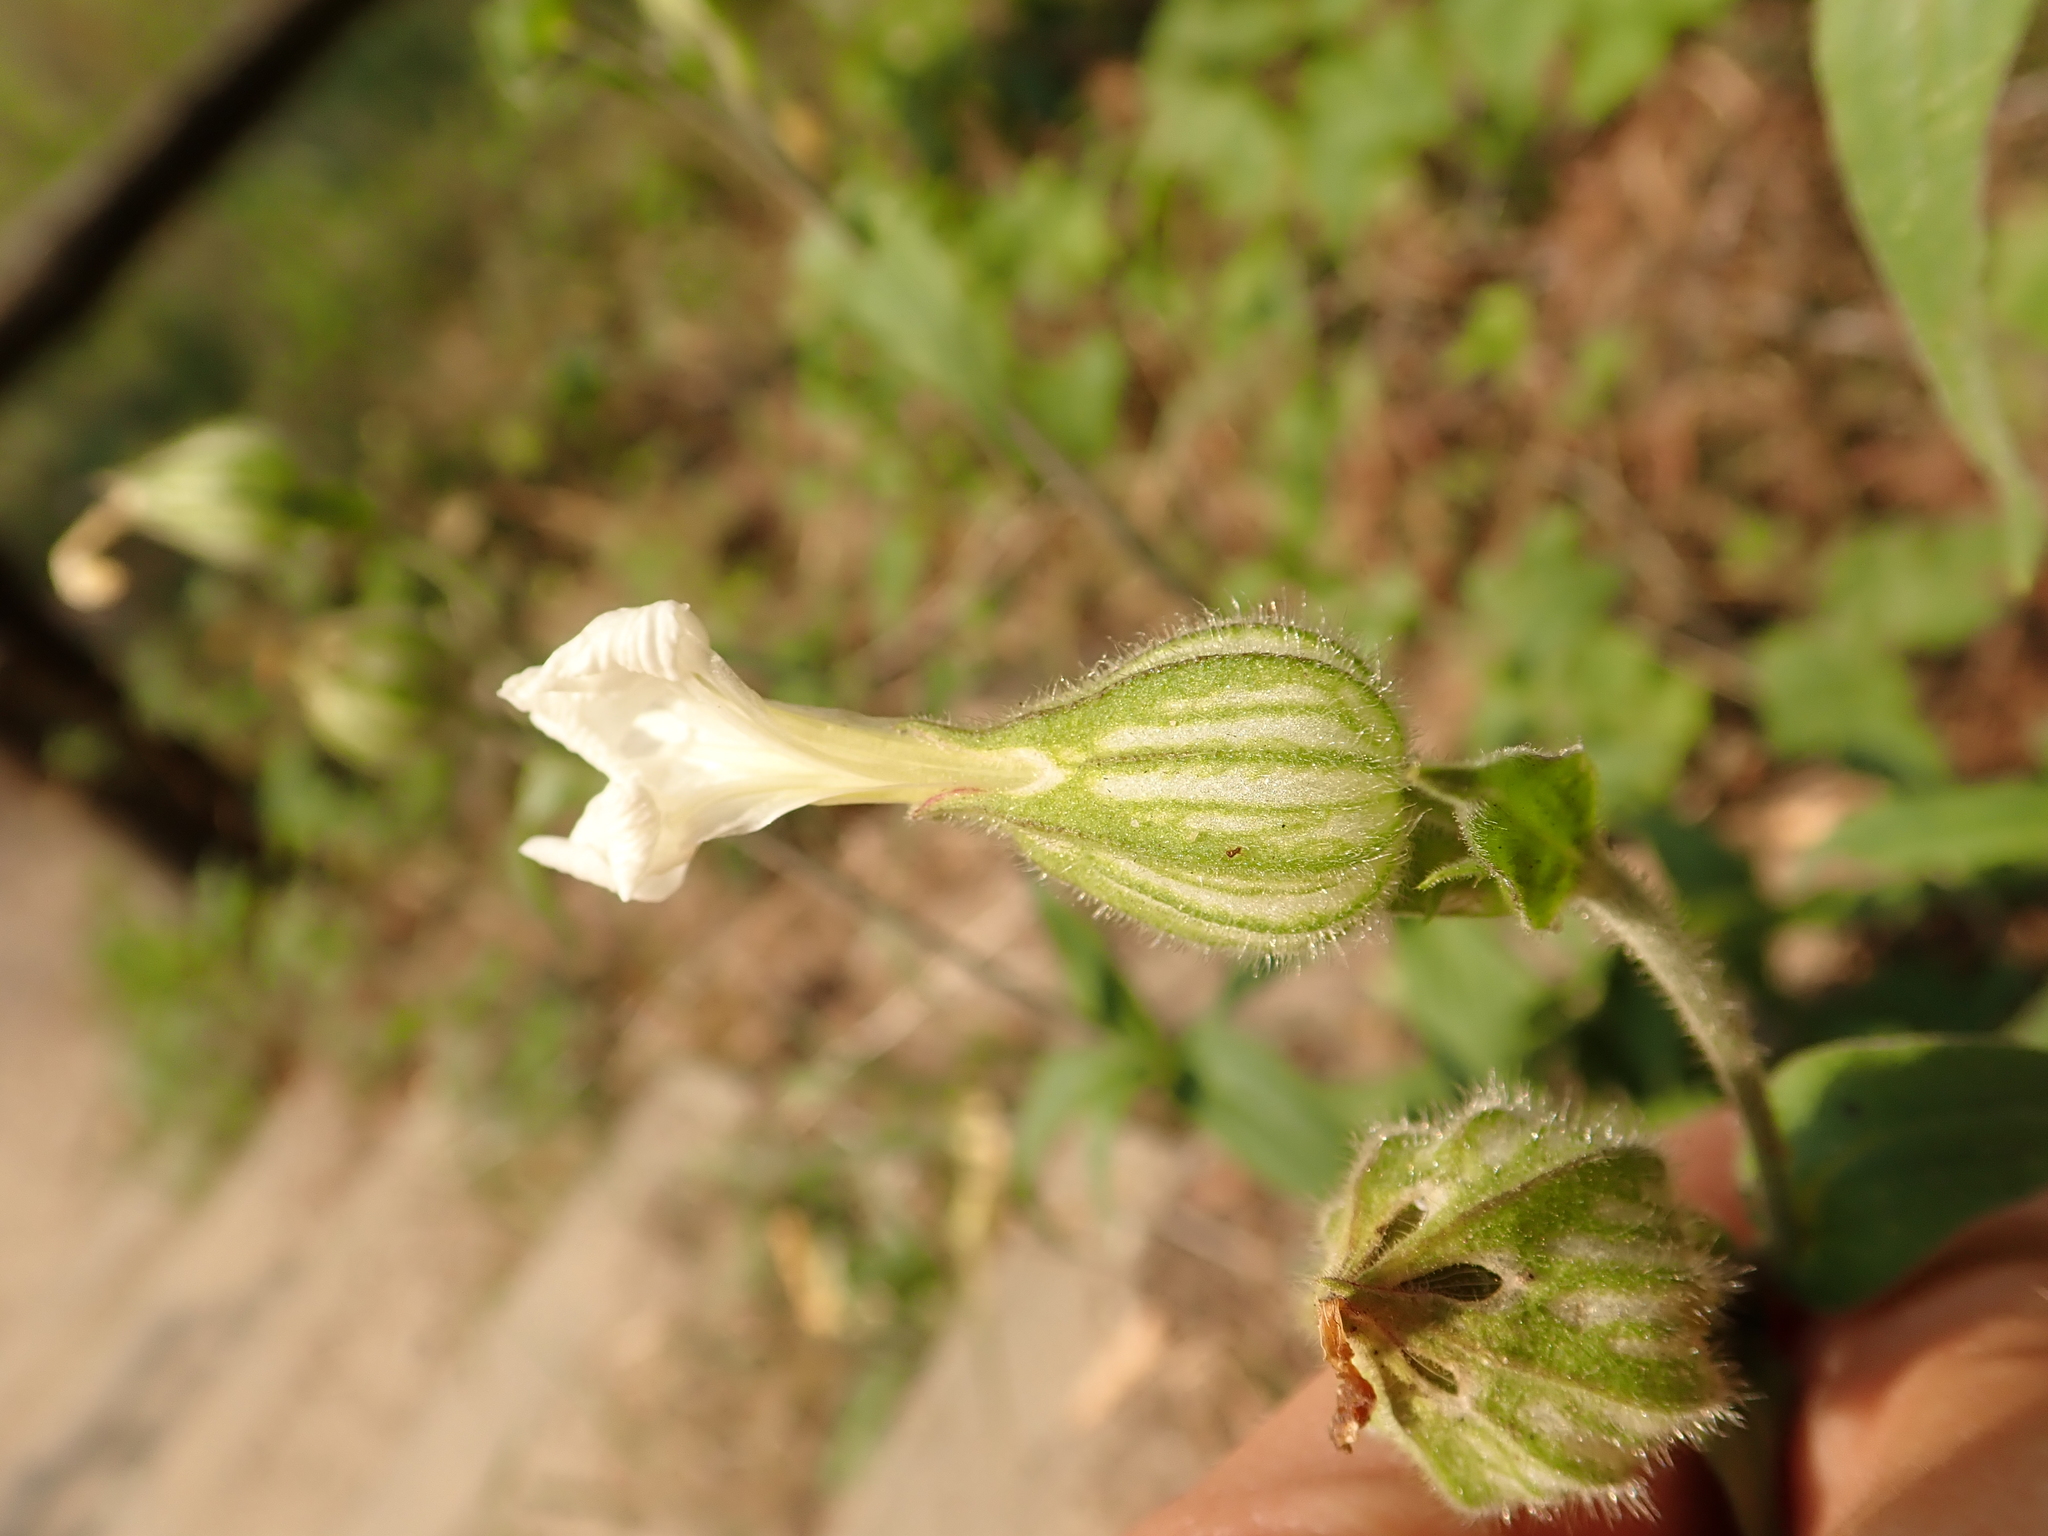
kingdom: Plantae
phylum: Tracheophyta
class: Magnoliopsida
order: Caryophyllales
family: Caryophyllaceae
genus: Silene
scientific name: Silene latifolia
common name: White campion
